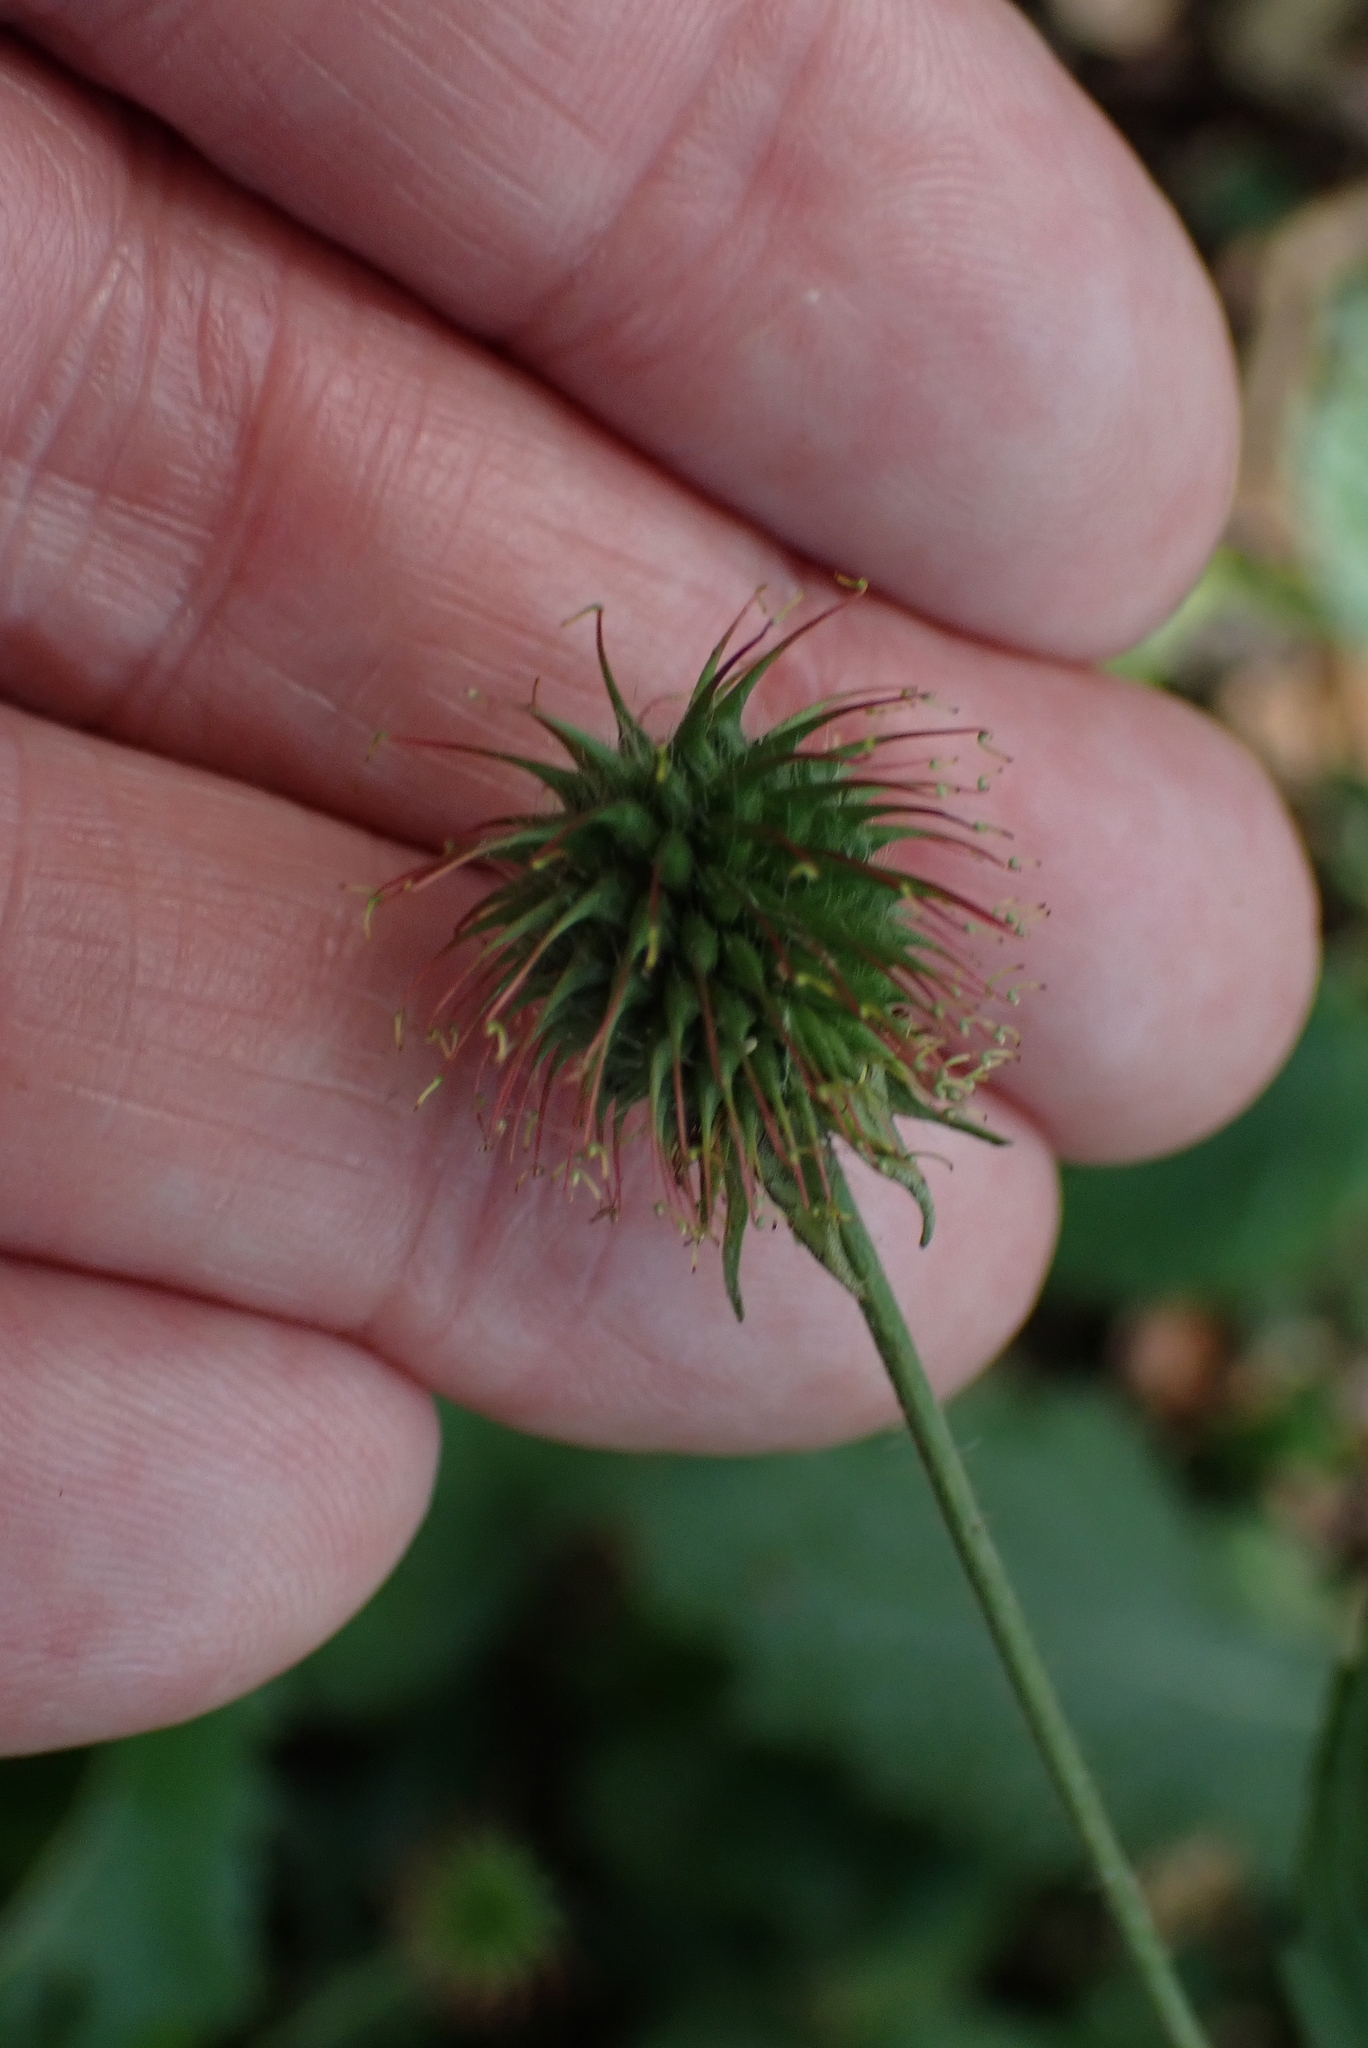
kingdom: Plantae
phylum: Tracheophyta
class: Magnoliopsida
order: Rosales
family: Rosaceae
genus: Geum
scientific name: Geum urbanum
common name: Wood avens
